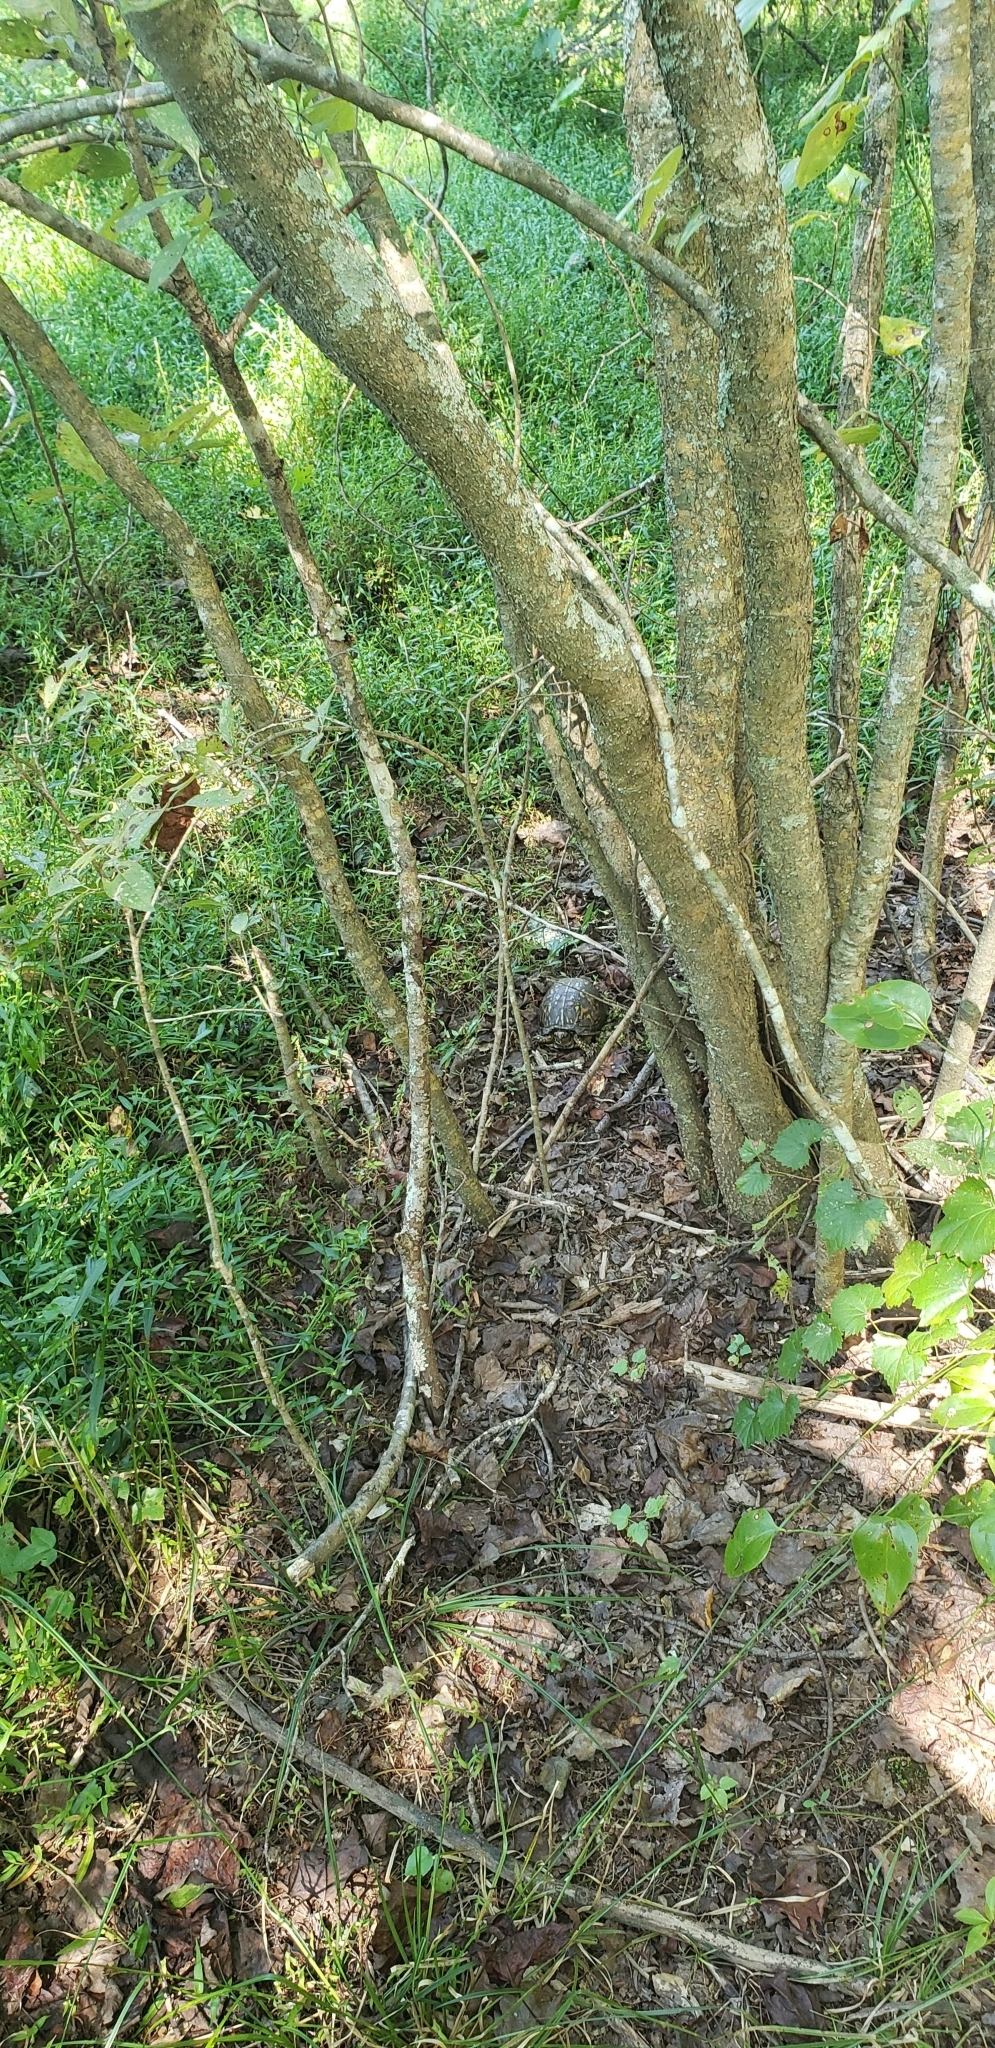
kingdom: Animalia
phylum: Chordata
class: Testudines
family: Emydidae
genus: Terrapene
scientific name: Terrapene carolina
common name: Common box turtle
